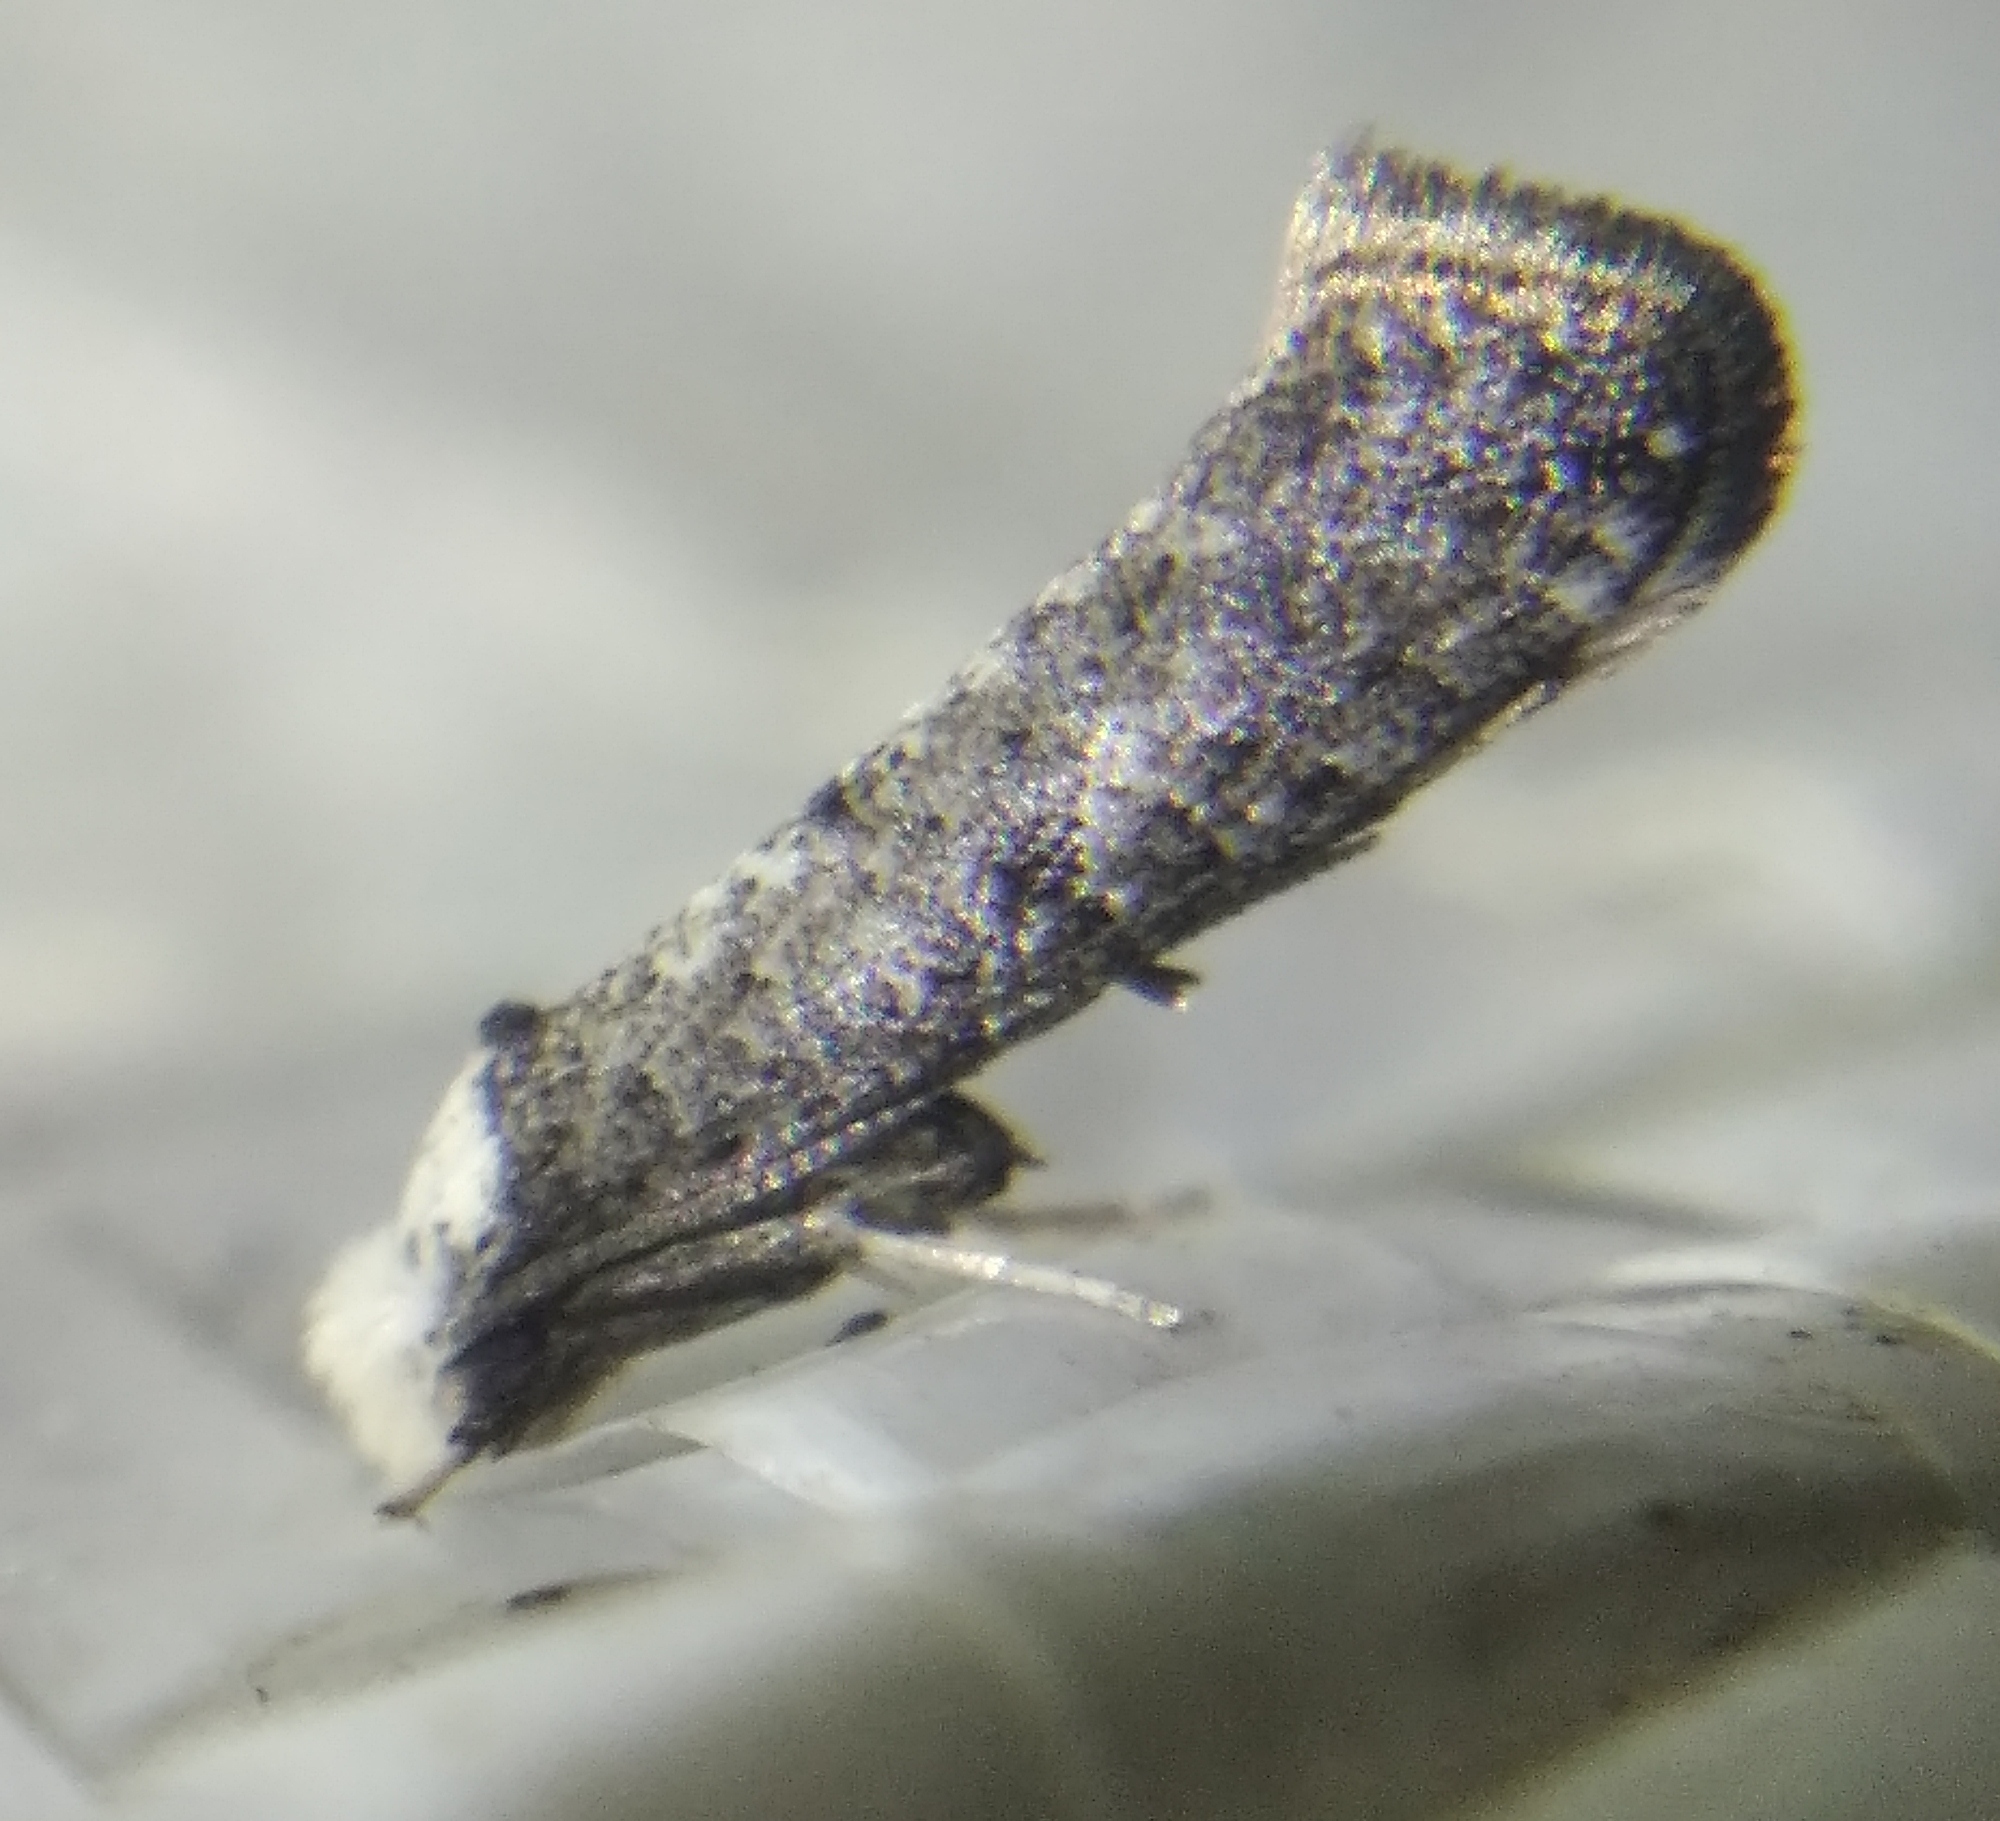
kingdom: Animalia
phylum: Arthropoda
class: Insecta
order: Lepidoptera
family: Yponomeutidae
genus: Paraswammerdamia
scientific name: Paraswammerdamia albicapitella
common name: White-headed ermel
